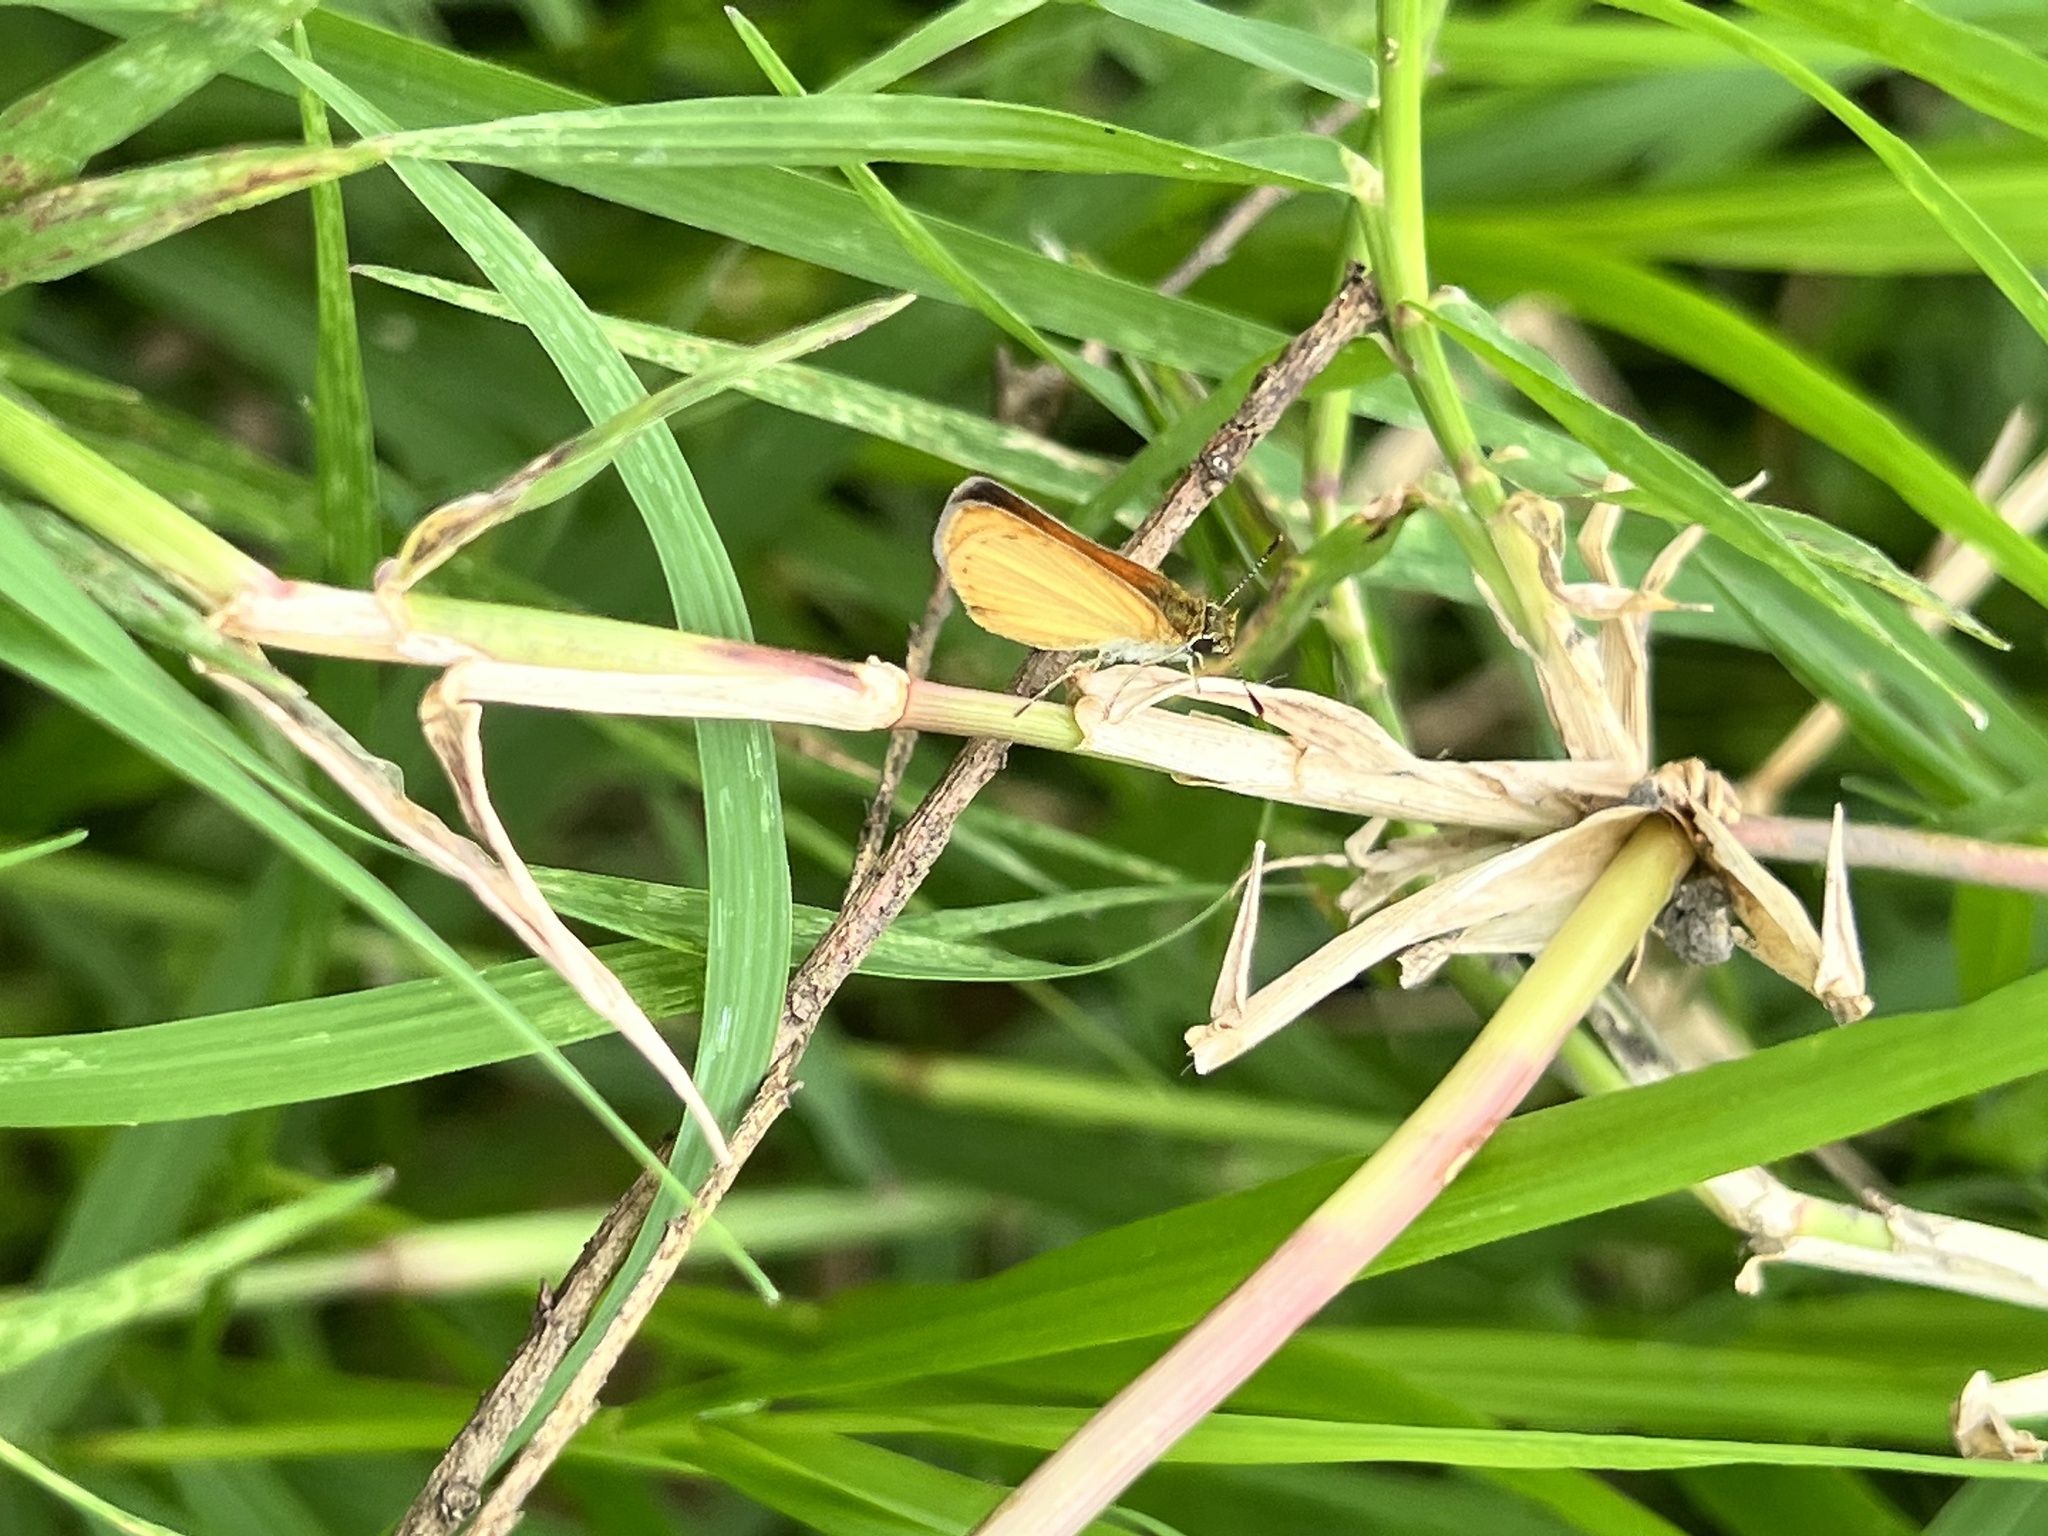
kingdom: Animalia
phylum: Arthropoda
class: Insecta
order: Lepidoptera
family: Hesperiidae
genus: Ancyloxypha
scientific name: Ancyloxypha arene
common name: Tropical least skipper
